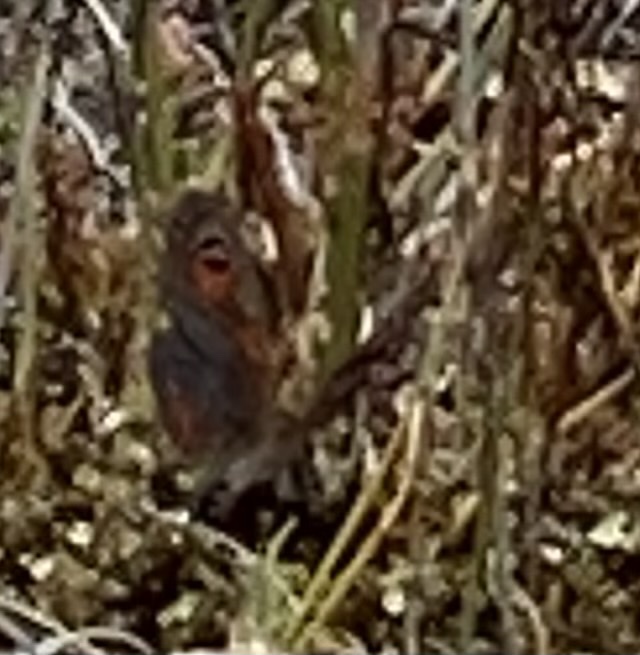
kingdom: Animalia
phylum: Arthropoda
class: Insecta
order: Lepidoptera
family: Nymphalidae
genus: Pseudonympha
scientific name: Pseudonympha trimenii
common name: Trimen’s brown
